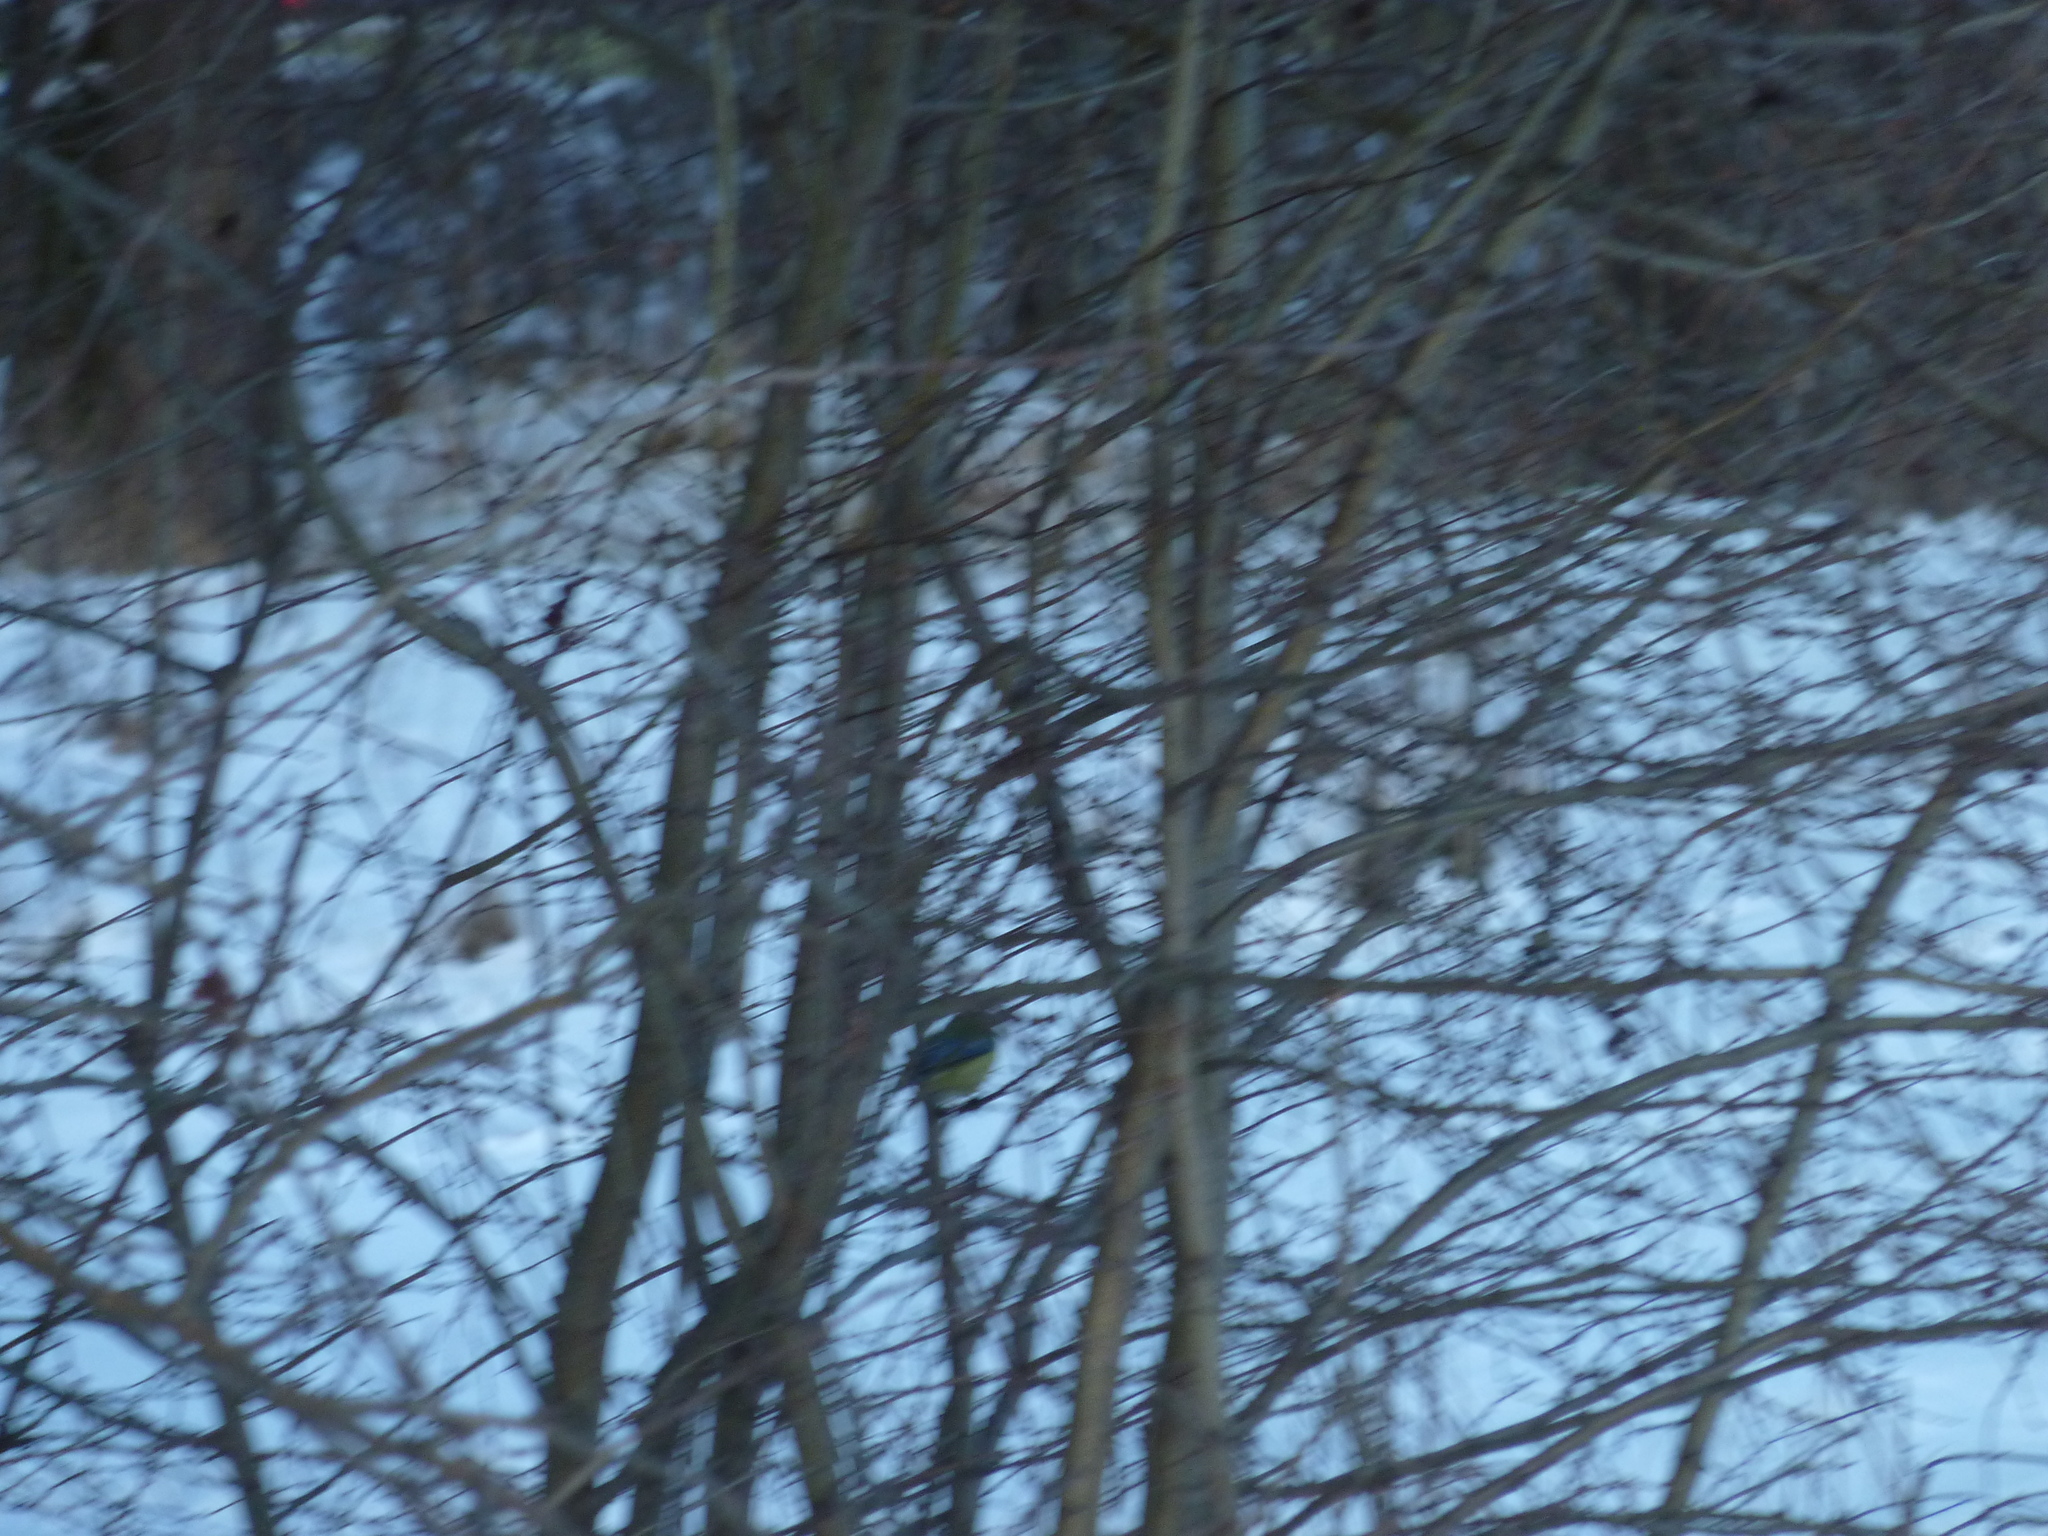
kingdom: Animalia
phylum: Chordata
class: Aves
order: Passeriformes
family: Paridae
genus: Cyanistes
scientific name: Cyanistes caeruleus
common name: Eurasian blue tit
